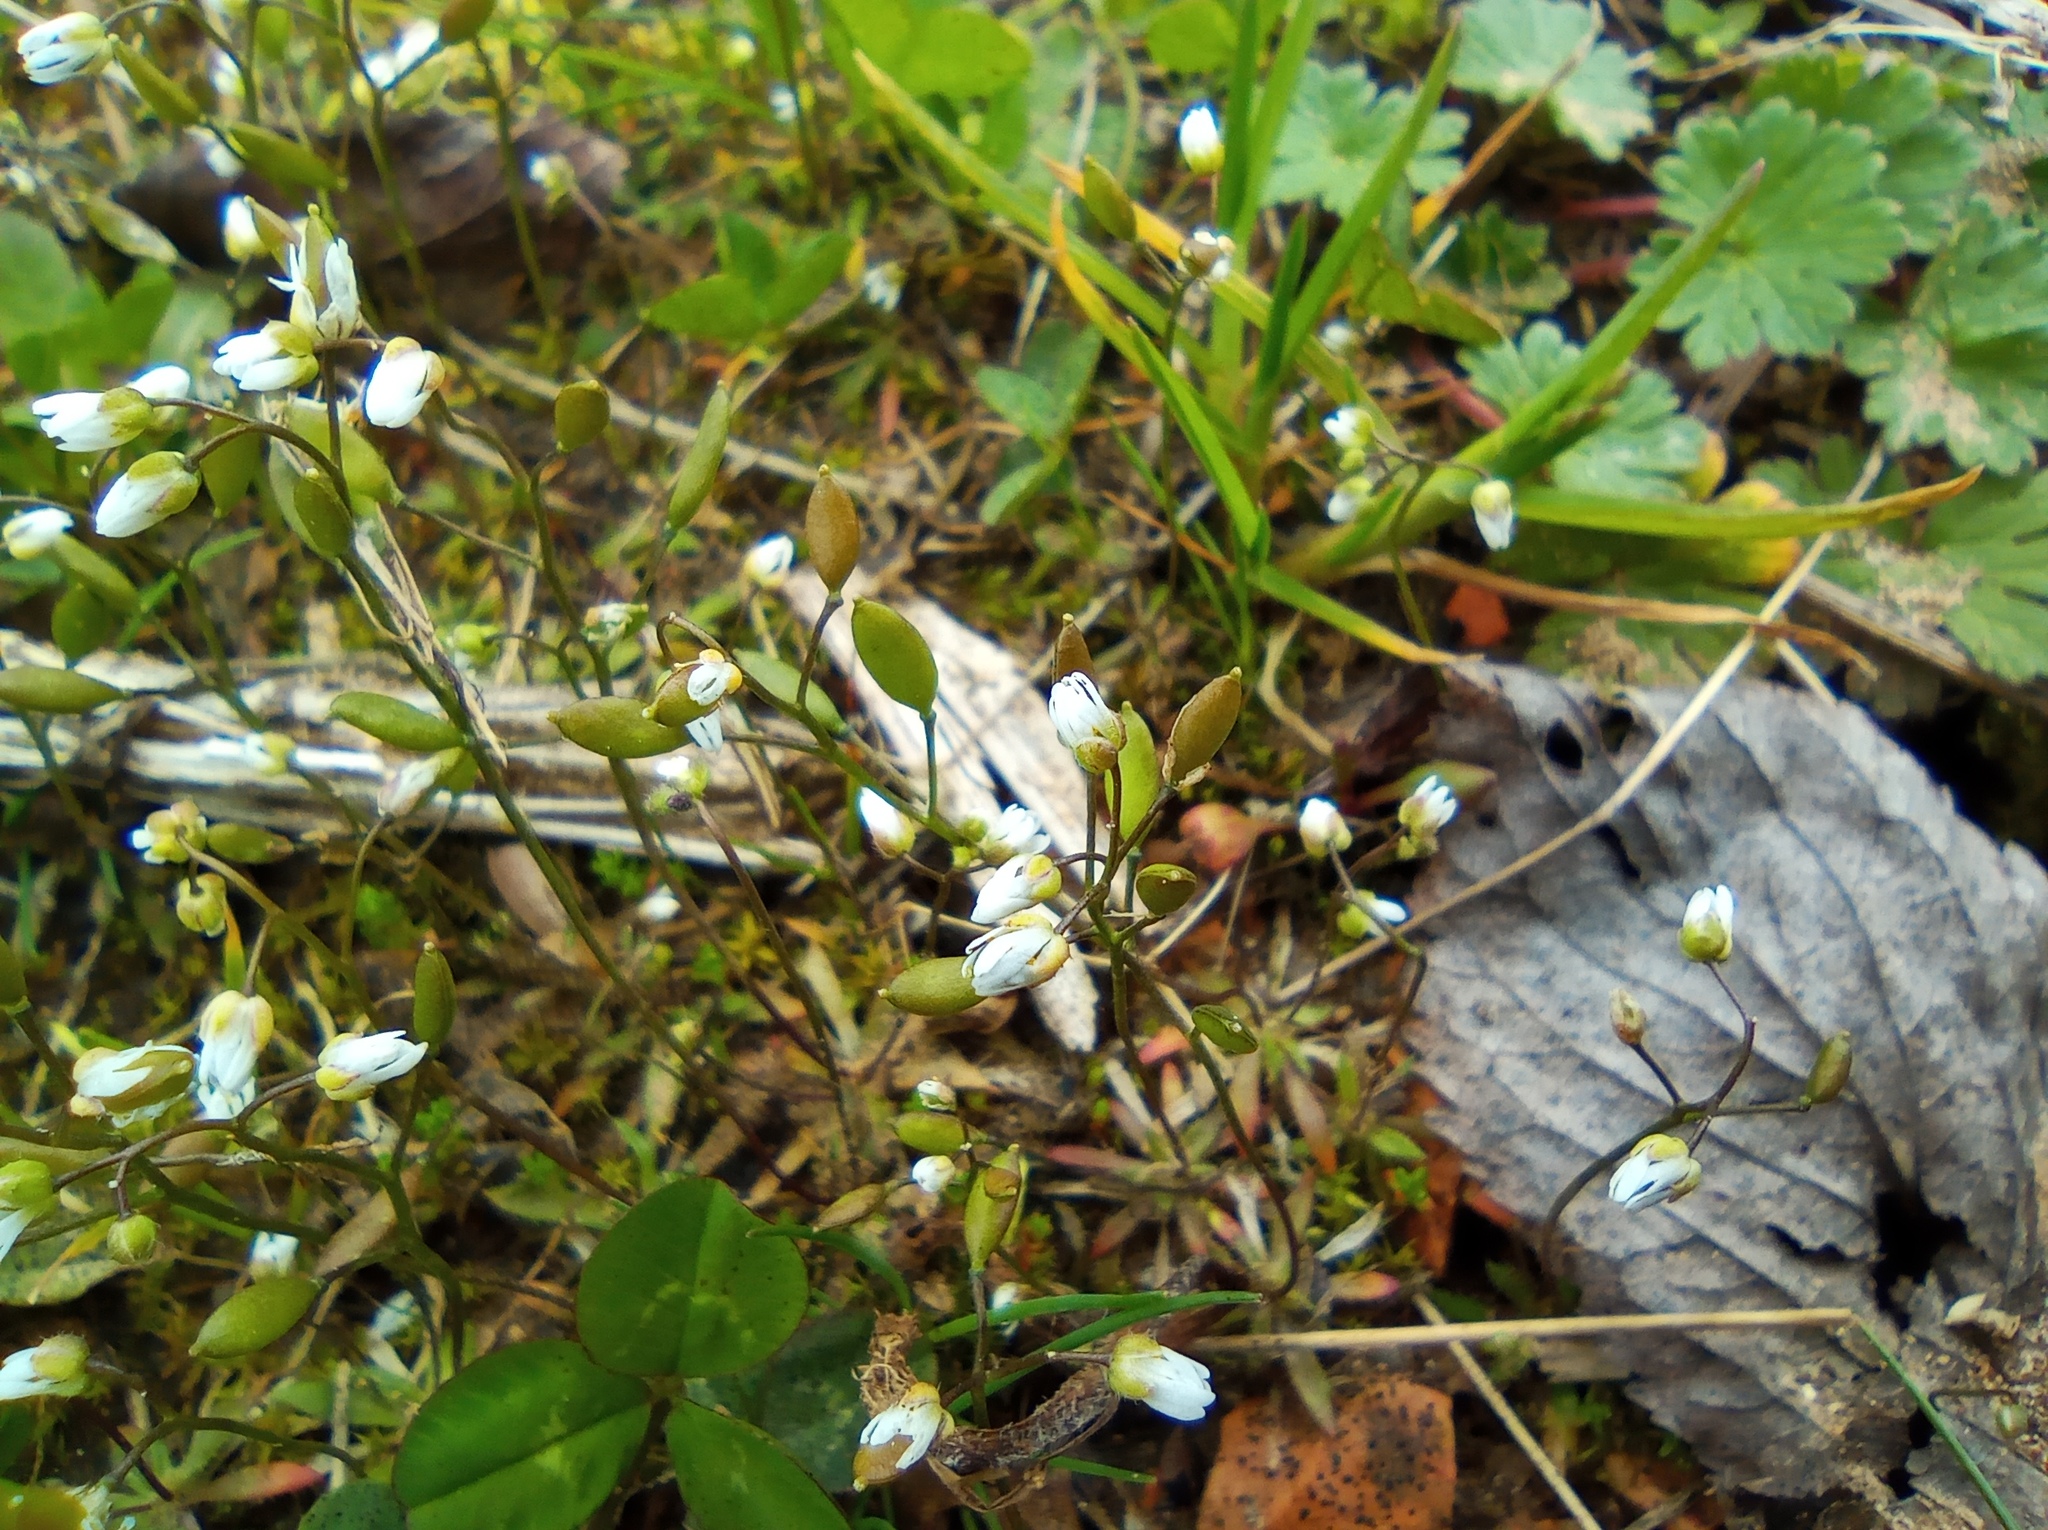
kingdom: Plantae
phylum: Tracheophyta
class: Magnoliopsida
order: Brassicales
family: Brassicaceae
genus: Draba
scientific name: Draba verna
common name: Spring draba
